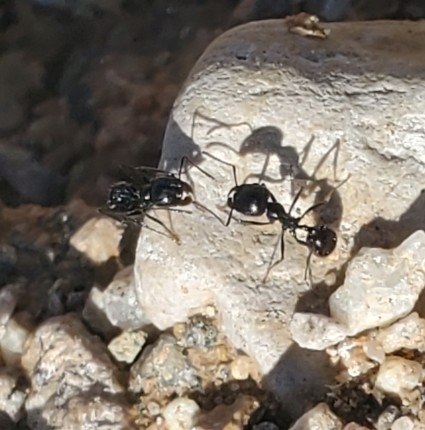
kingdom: Animalia
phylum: Arthropoda
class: Insecta
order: Hymenoptera
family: Formicidae
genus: Messor
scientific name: Messor pergandei
